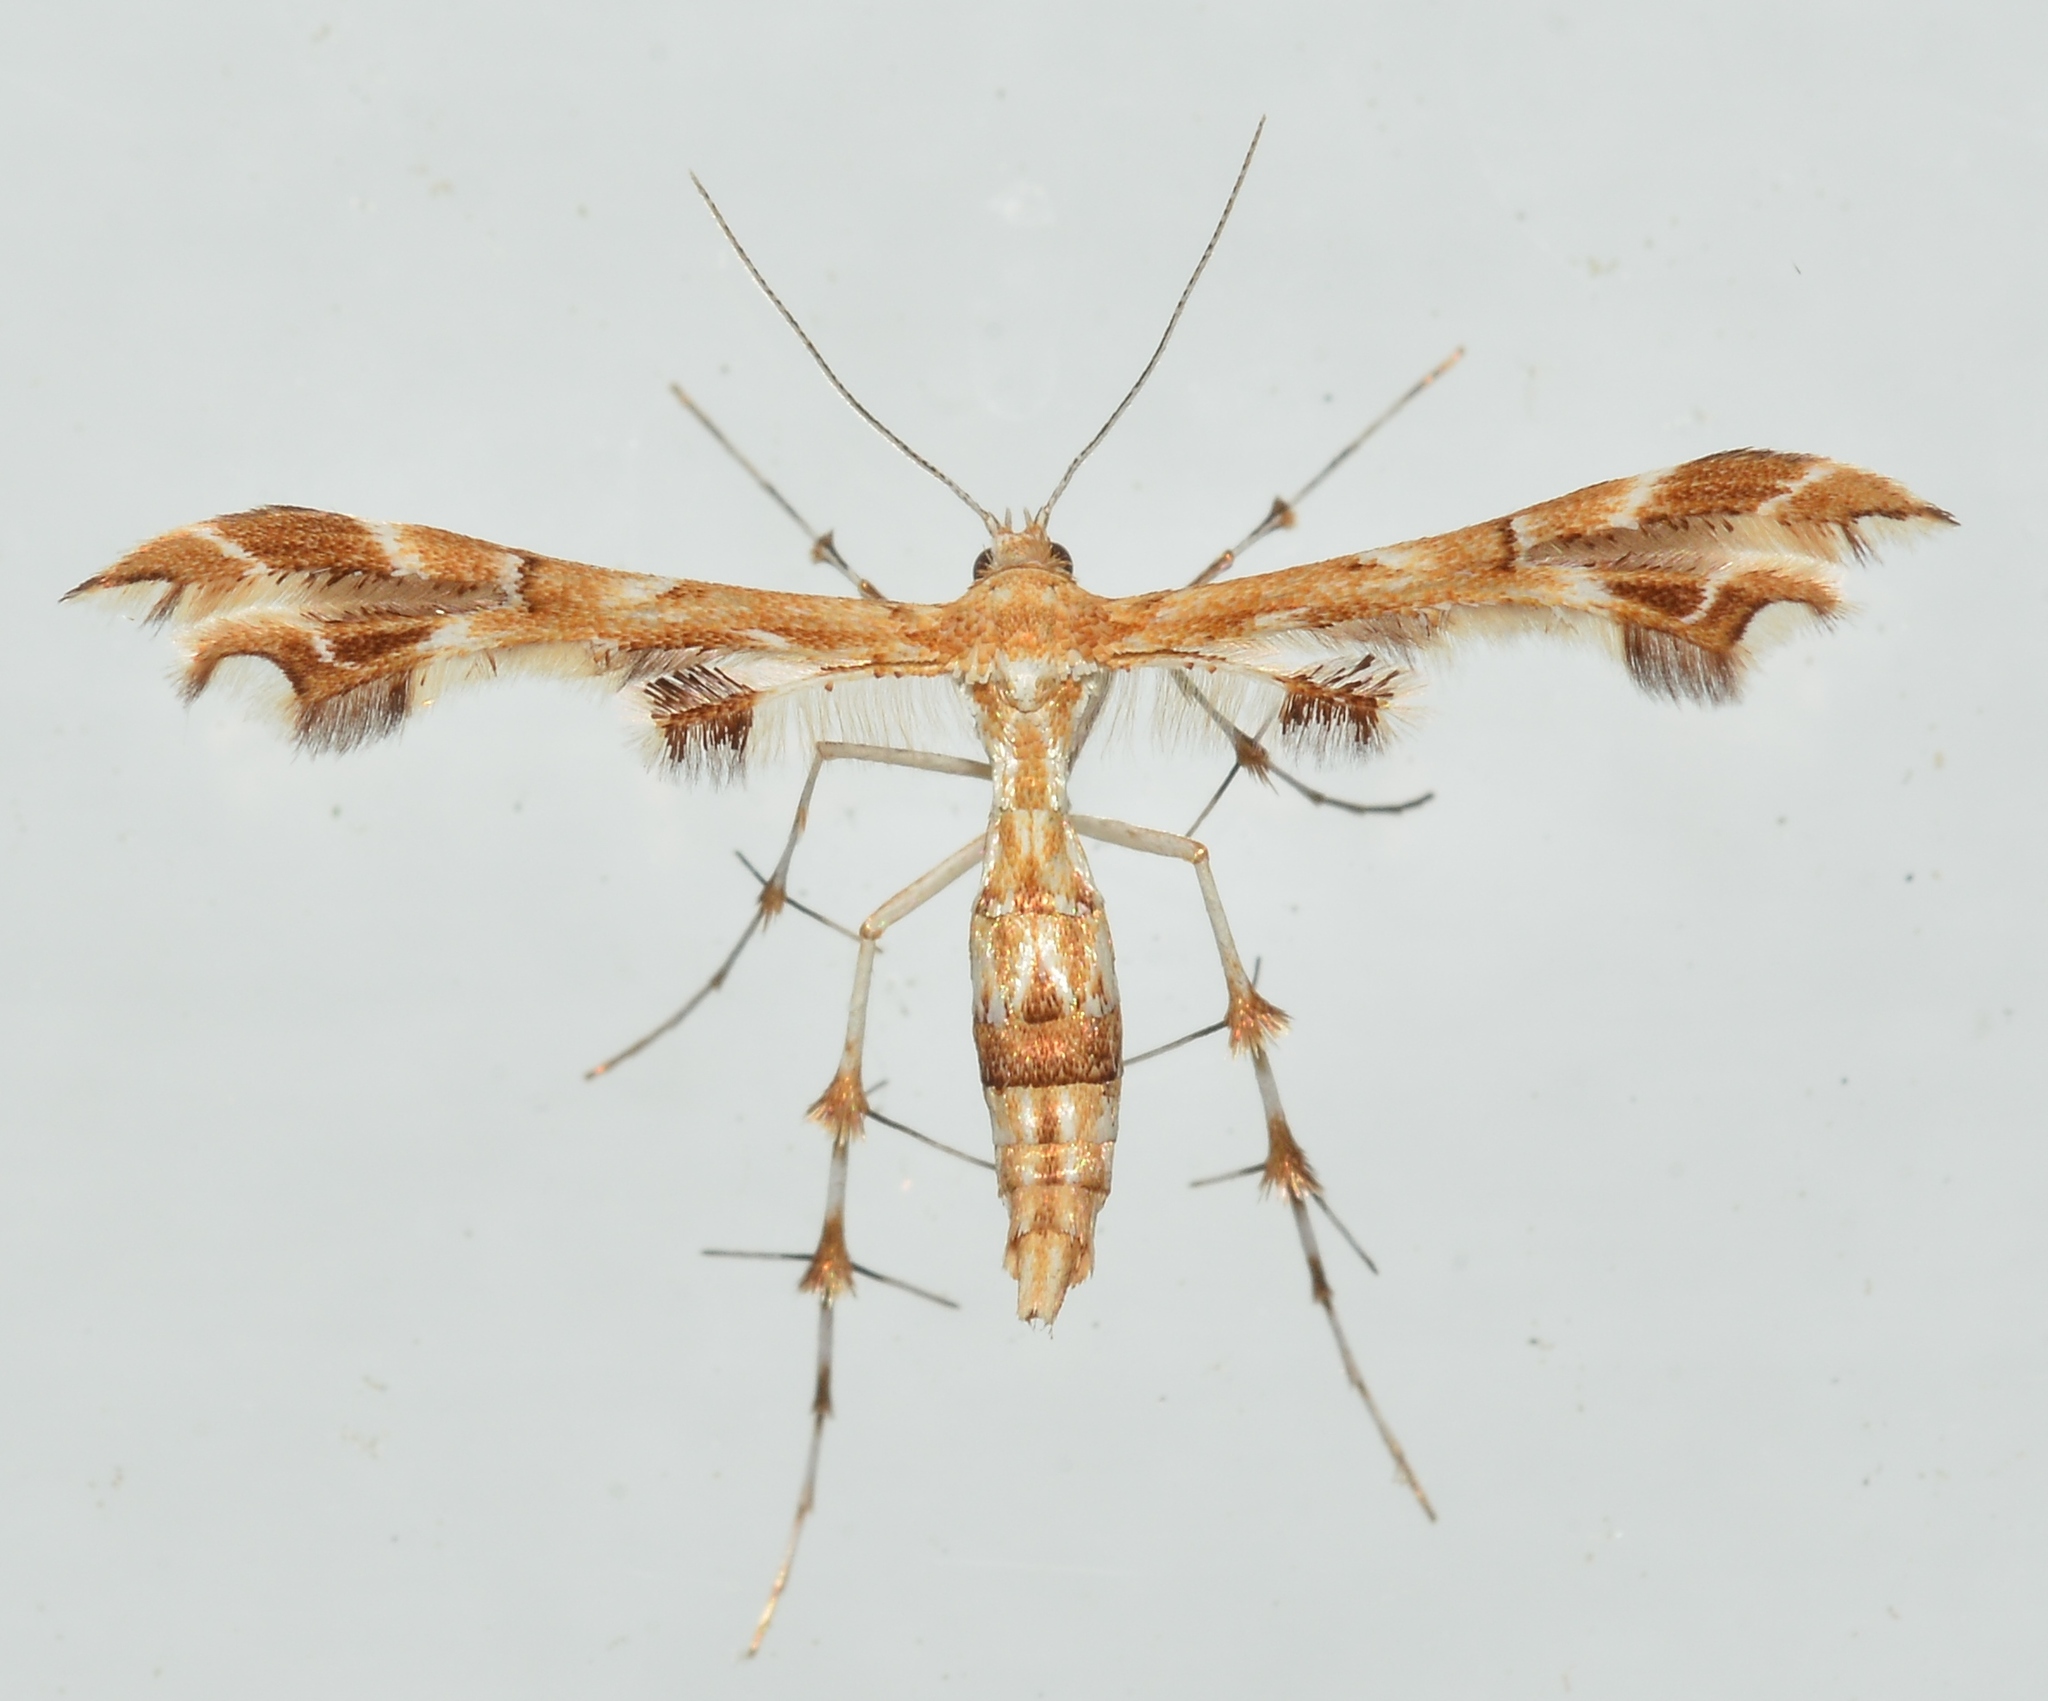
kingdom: Animalia
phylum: Arthropoda
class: Insecta
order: Lepidoptera
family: Pterophoridae
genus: Geina
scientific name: Geina periscelidactylus
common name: Grape plume moth
